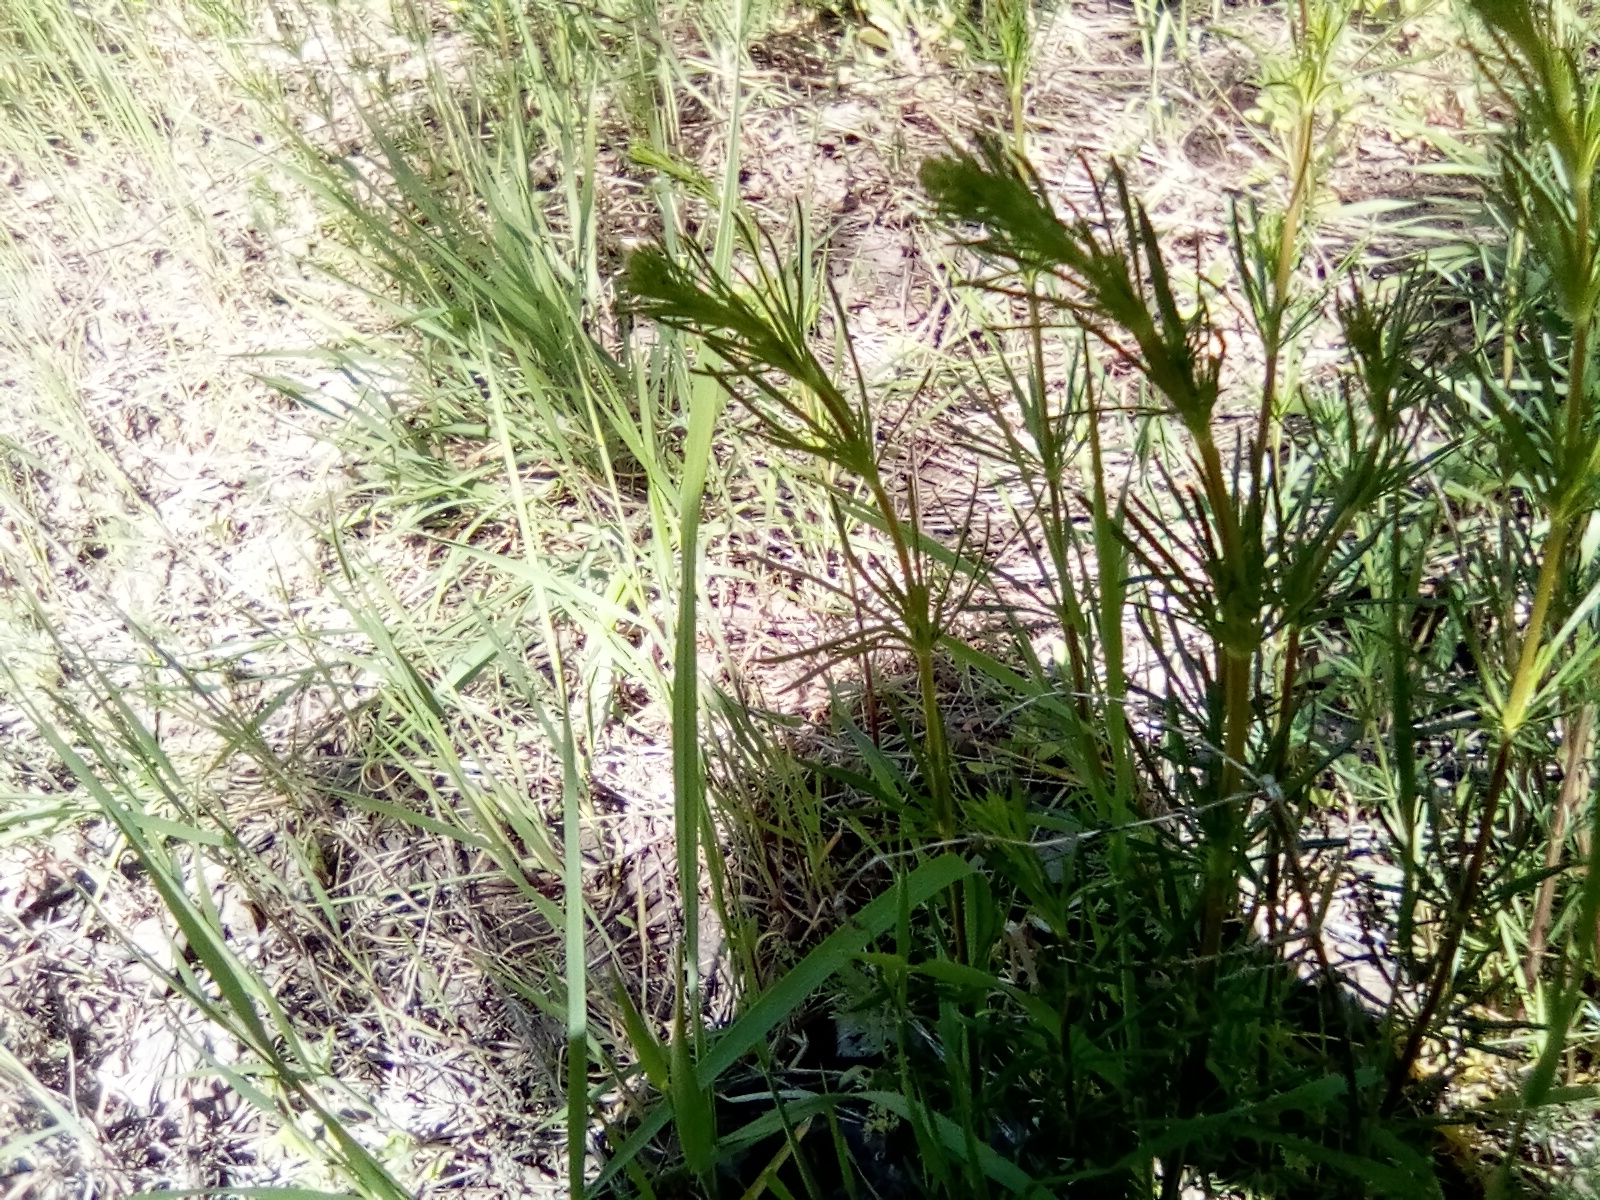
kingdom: Plantae
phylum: Tracheophyta
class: Magnoliopsida
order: Gentianales
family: Rubiaceae
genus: Galium
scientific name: Galium verum
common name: Lady's bedstraw
